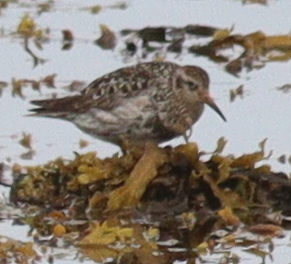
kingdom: Animalia
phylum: Chordata
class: Aves
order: Charadriiformes
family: Scolopacidae
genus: Calidris
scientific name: Calidris maritima
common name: Purple sandpiper
